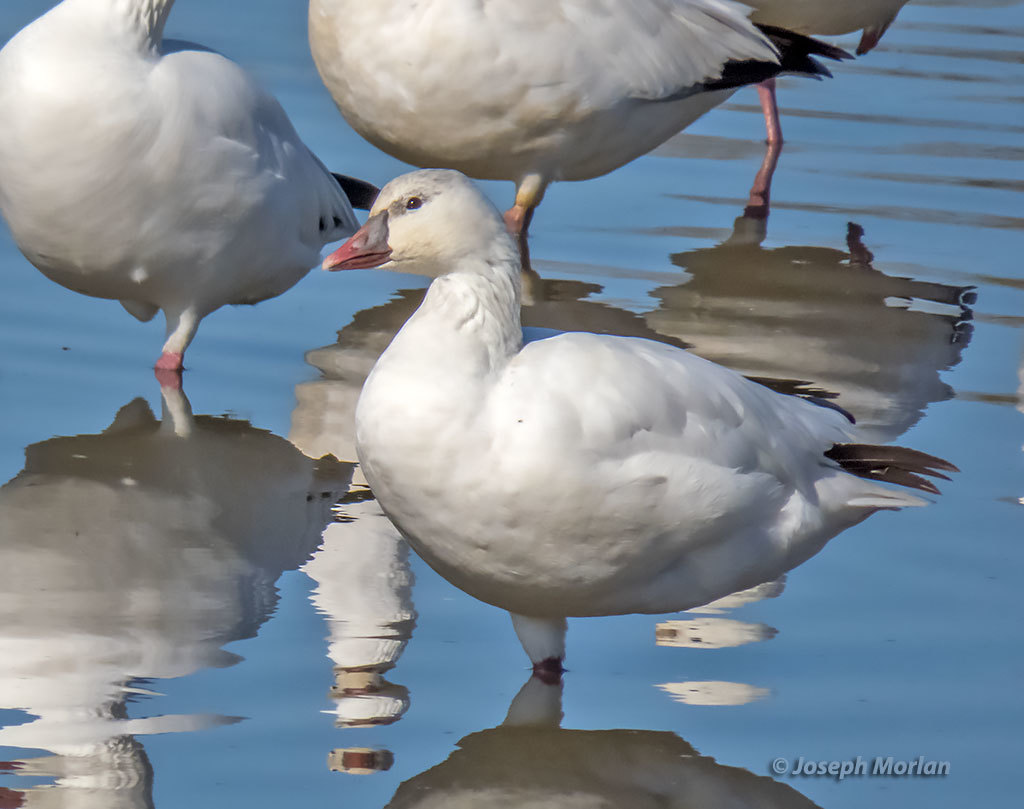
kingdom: Animalia
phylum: Chordata
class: Aves
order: Anseriformes
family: Anatidae
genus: Anser
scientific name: Anser rossii
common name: Ross's goose
